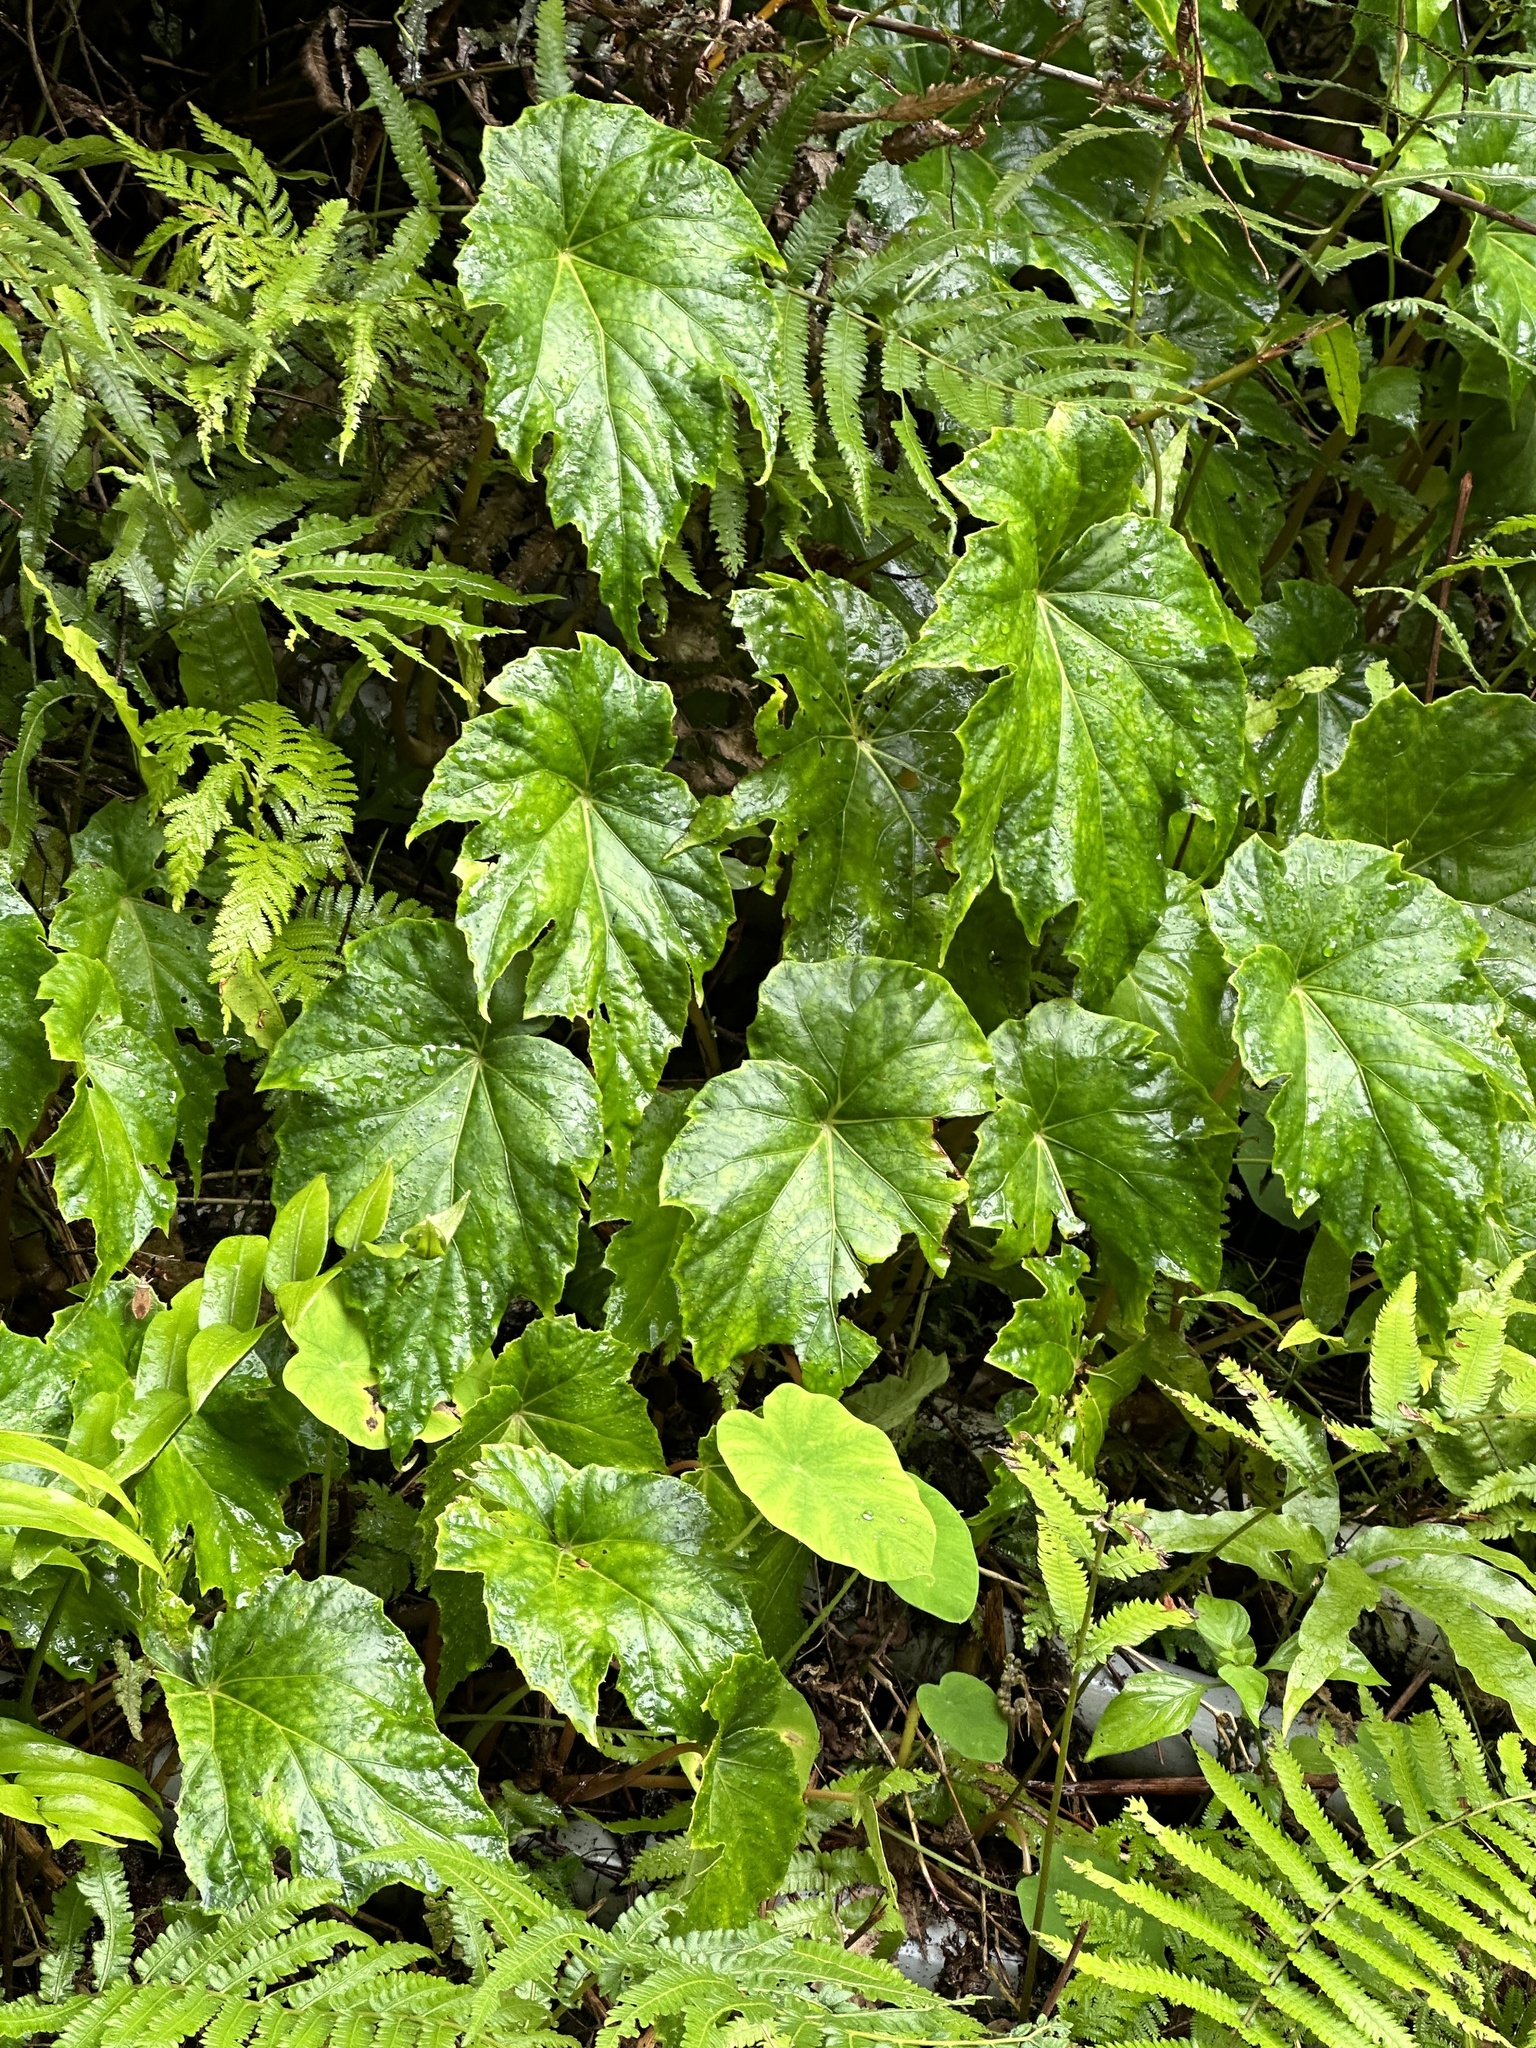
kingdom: Plantae
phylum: Tracheophyta
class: Magnoliopsida
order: Cucurbitales
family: Begoniaceae
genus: Begonia
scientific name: Begonia formosana
